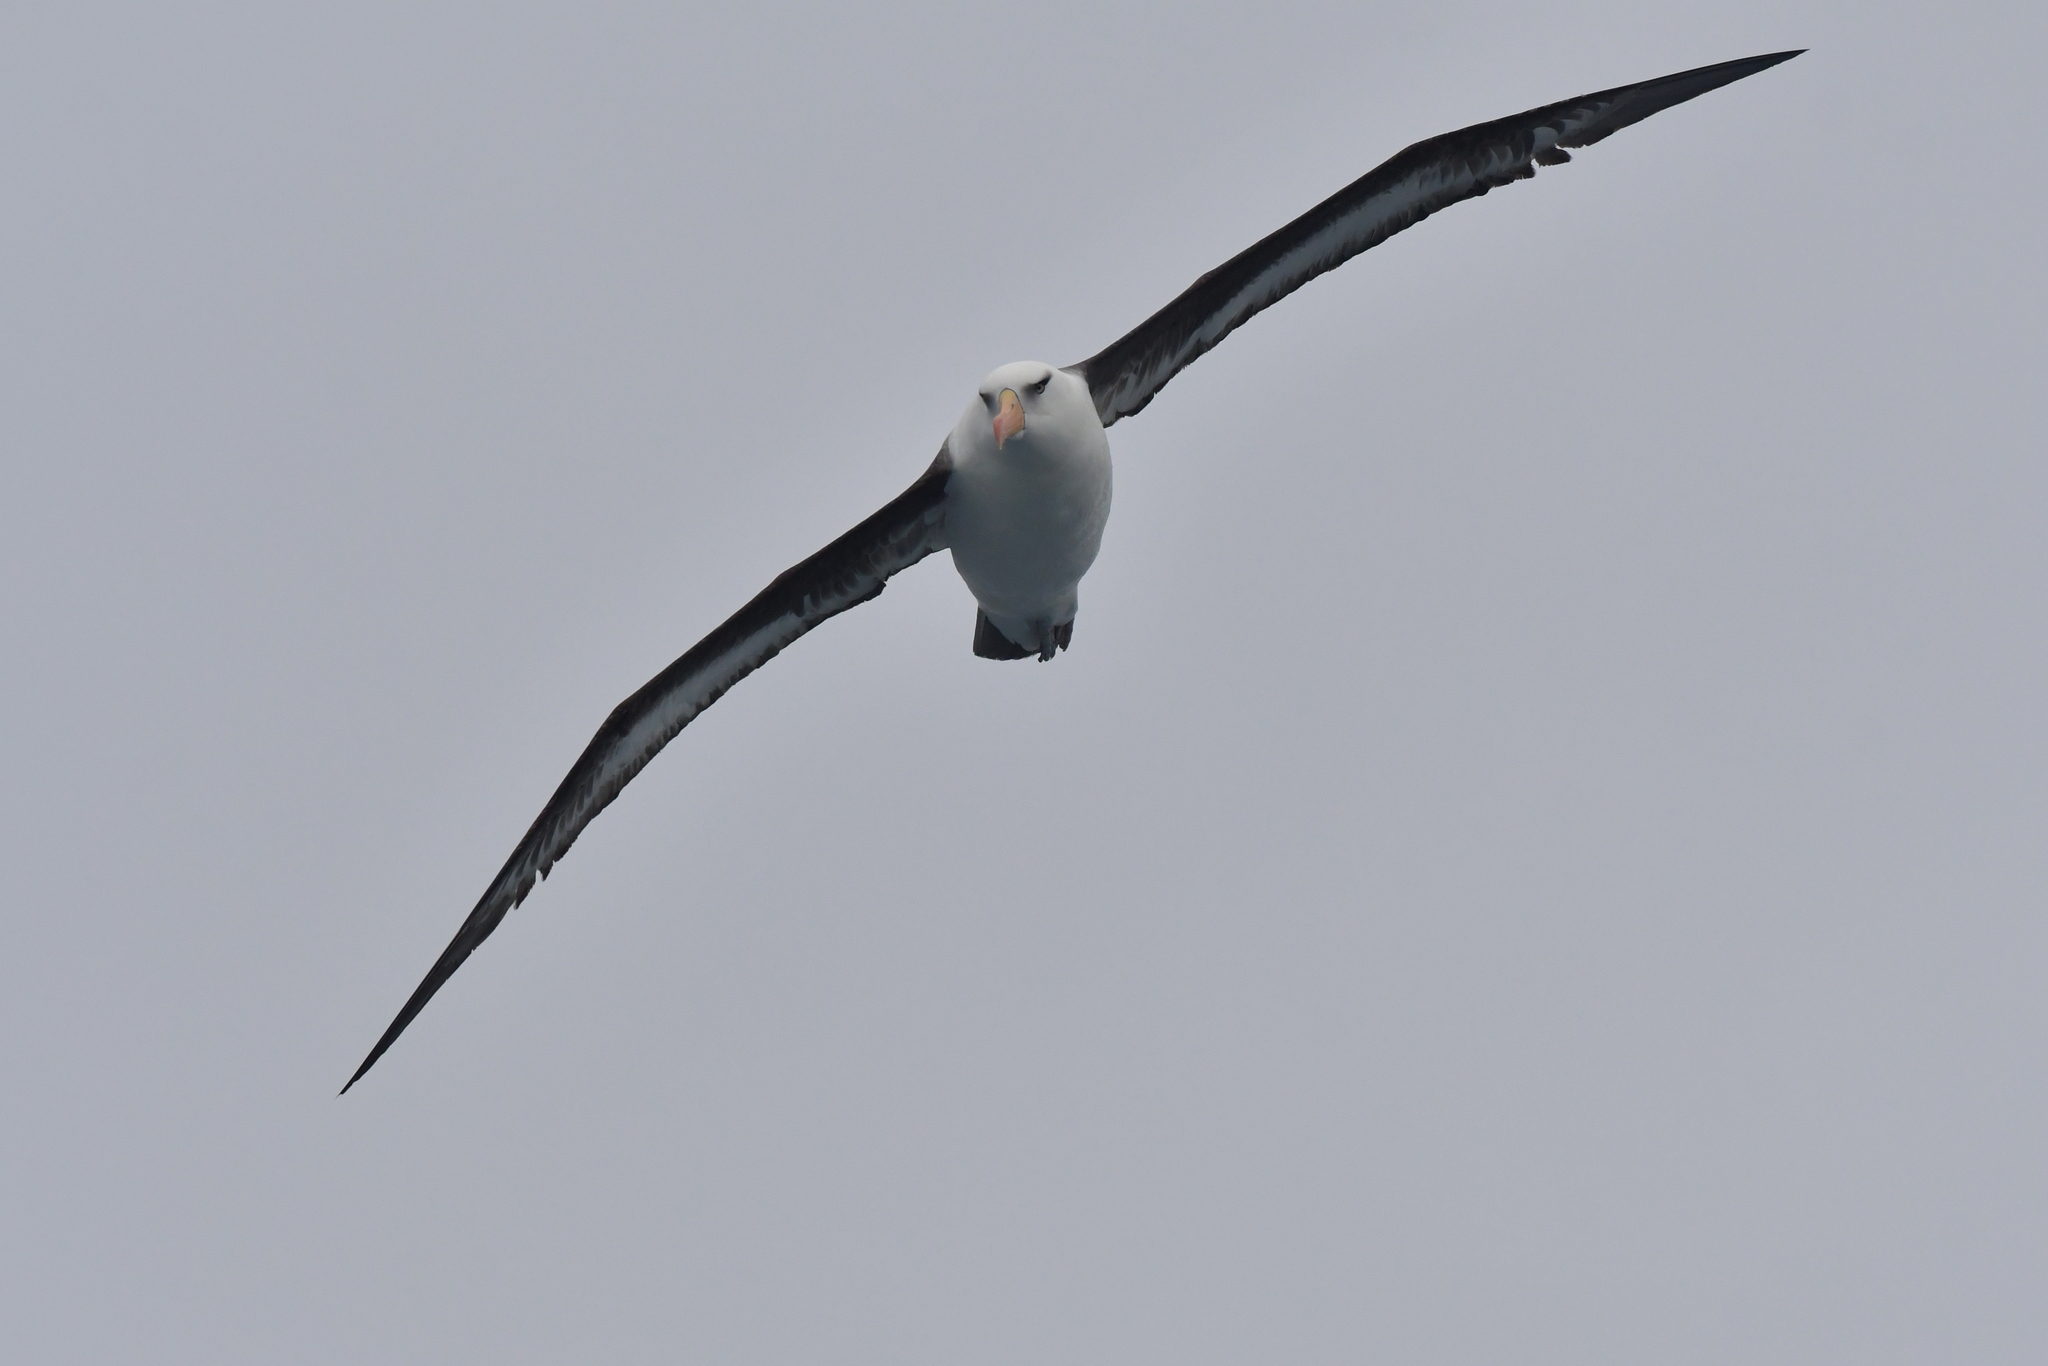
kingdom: Animalia
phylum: Chordata
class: Aves
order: Procellariiformes
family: Diomedeidae
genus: Thalassarche
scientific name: Thalassarche impavida
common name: Campbell albatross
